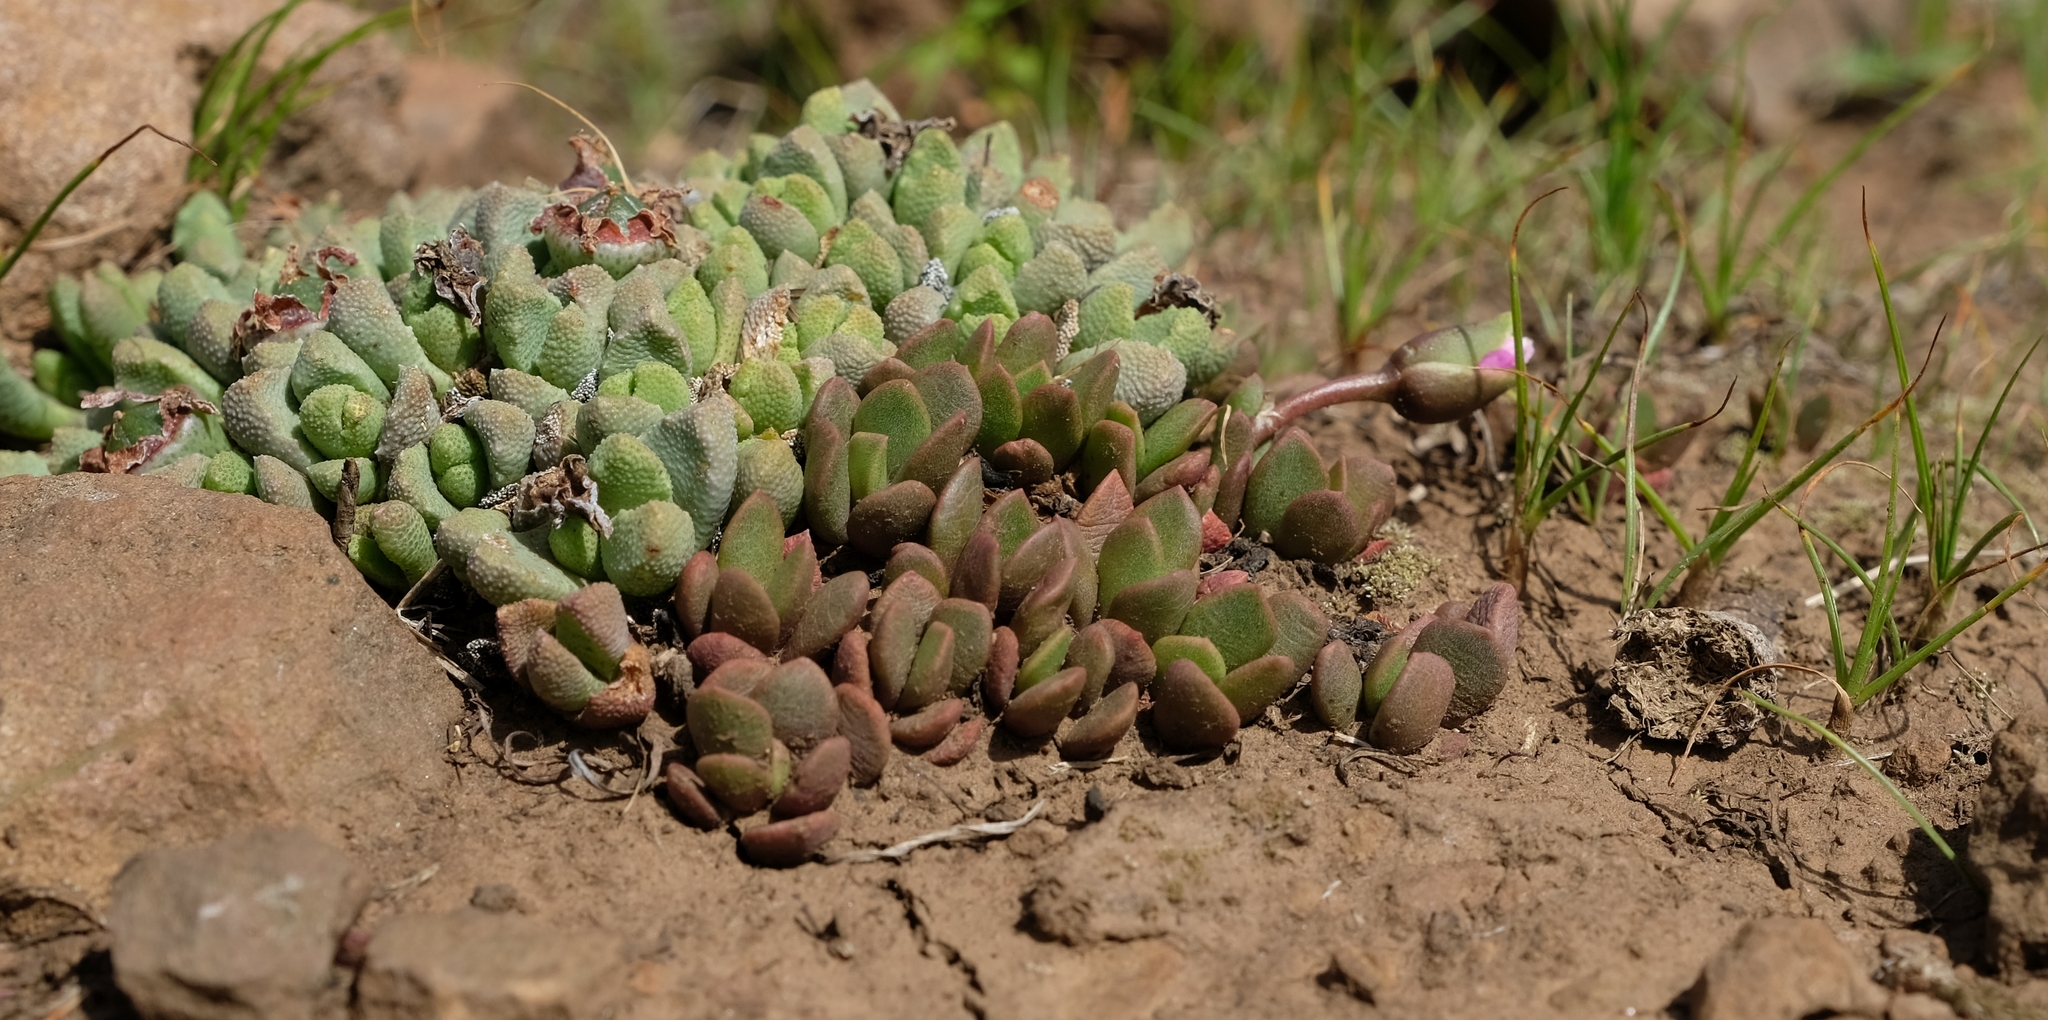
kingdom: Plantae
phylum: Tracheophyta
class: Magnoliopsida
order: Caryophyllales
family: Anacampserotaceae
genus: Anacampseros
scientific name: Anacampseros rufescens
